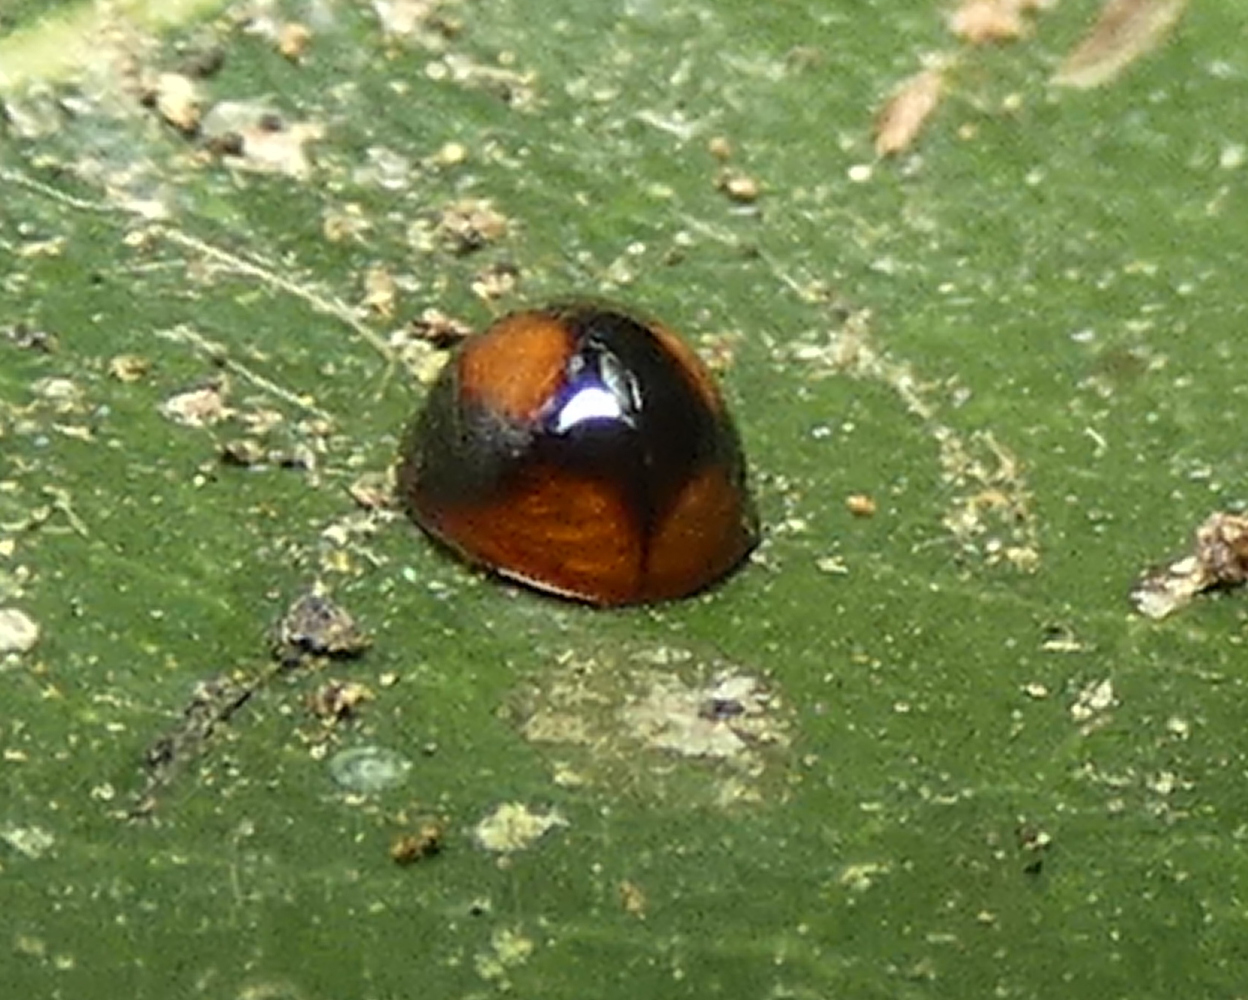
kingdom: Animalia
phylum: Arthropoda
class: Insecta
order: Coleoptera
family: Coccinellidae
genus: Cryptognatha
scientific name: Cryptognatha
